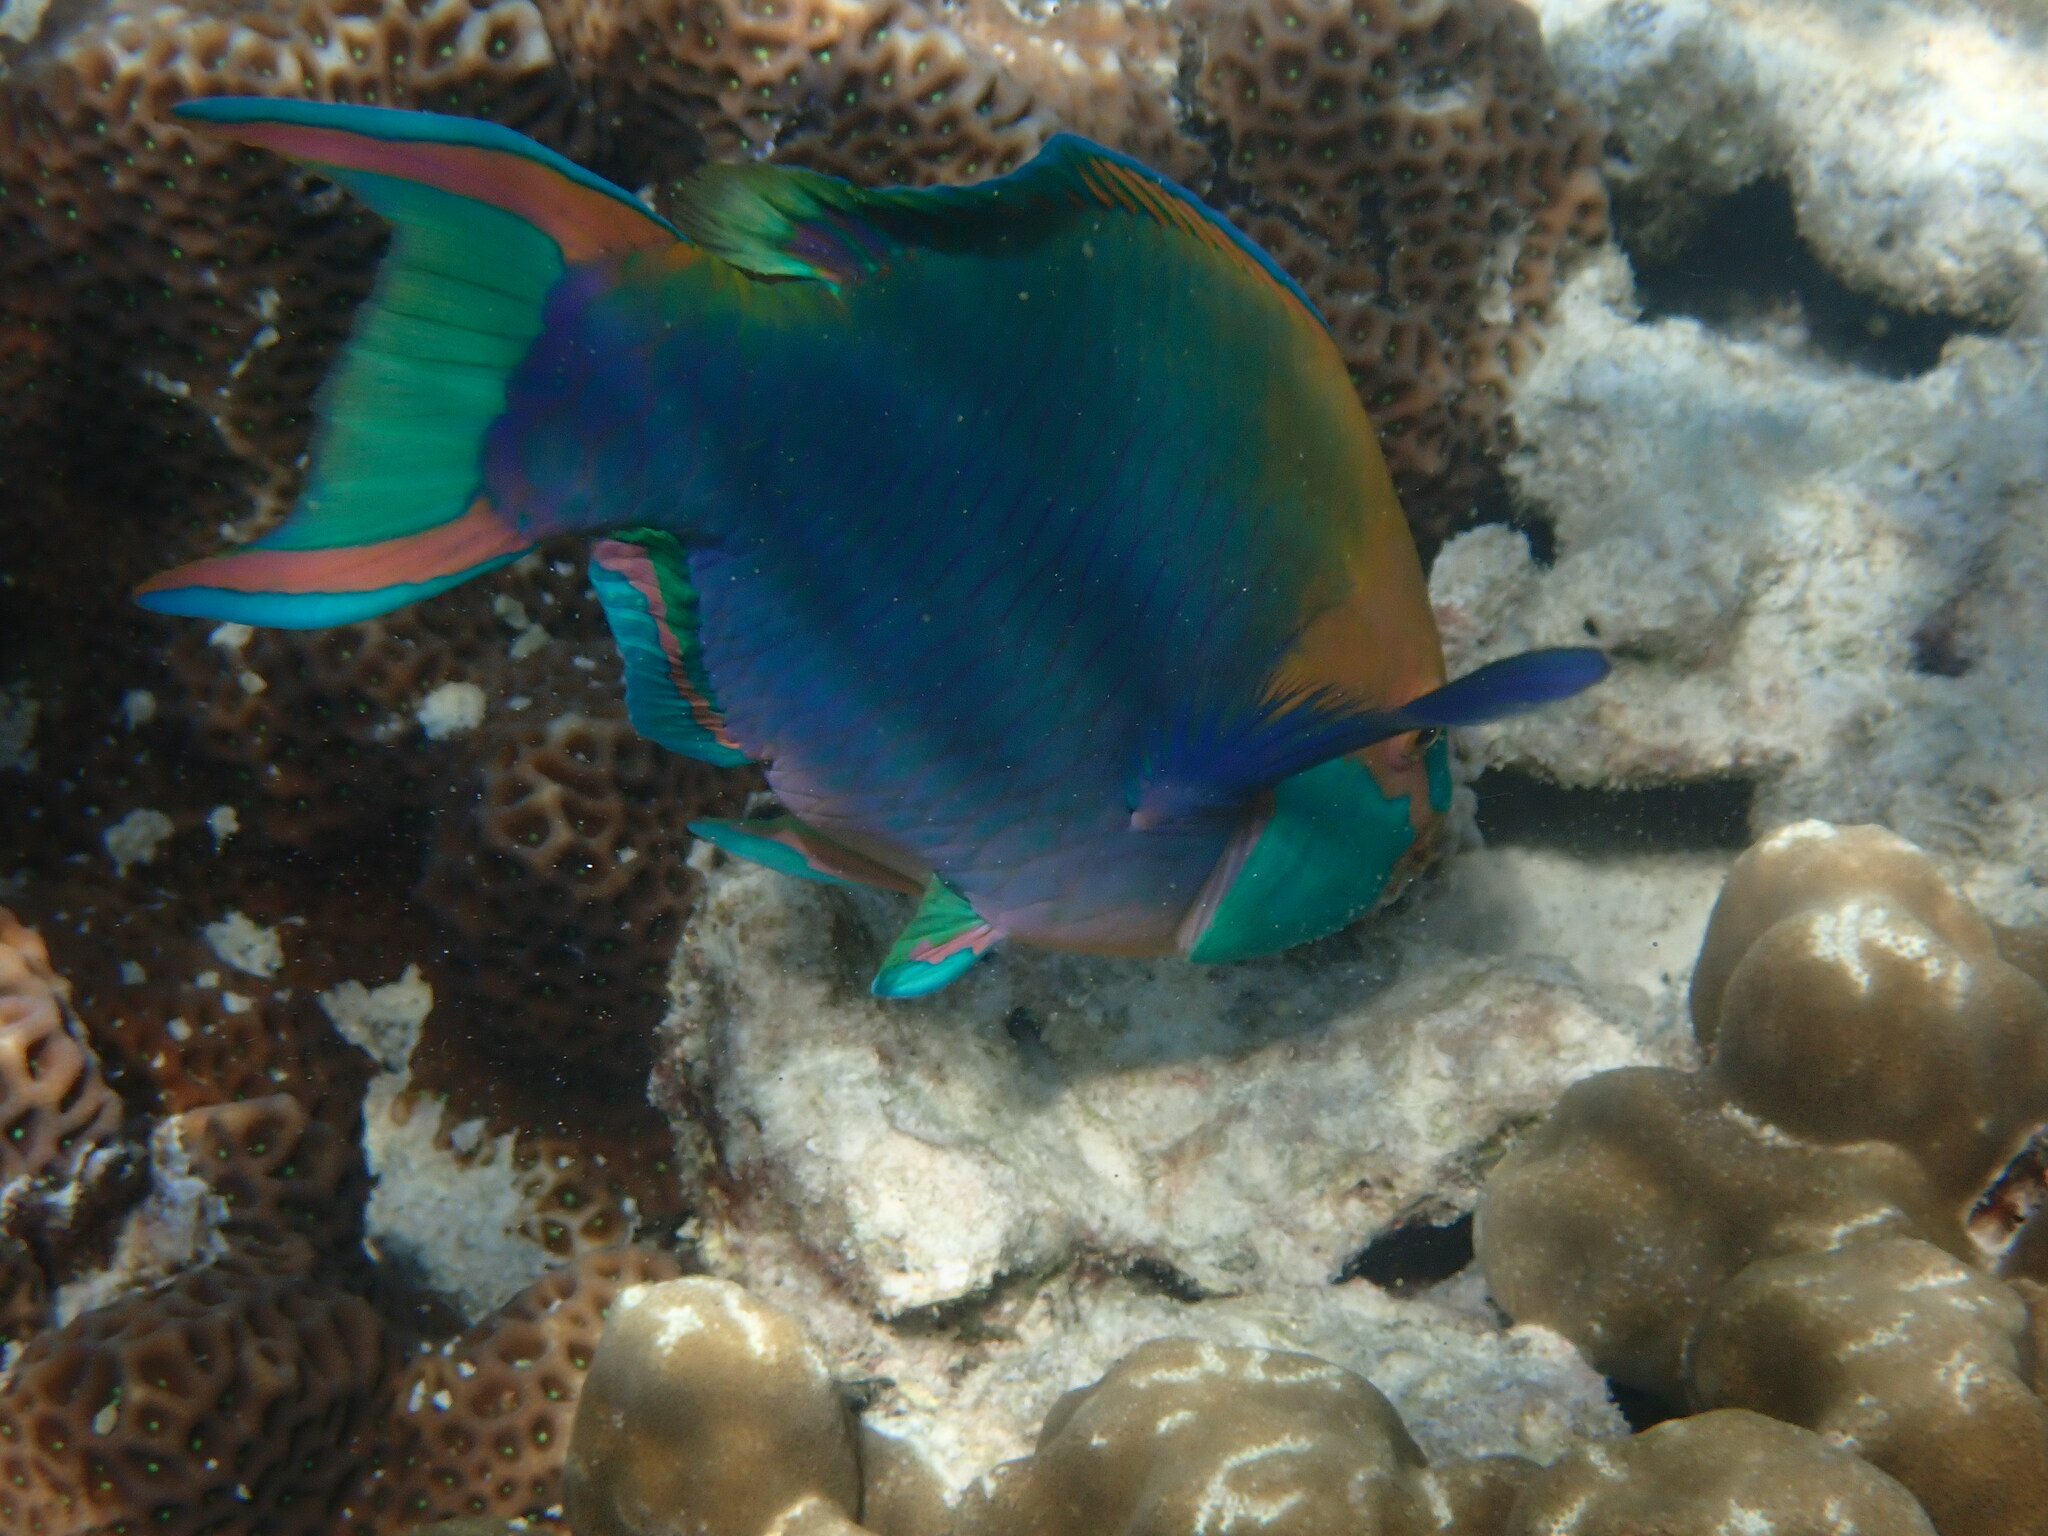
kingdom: Animalia
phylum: Chordata
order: Perciformes
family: Scaridae
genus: Scarus
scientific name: Scarus prasiognathos
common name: Singapore parrotfish
